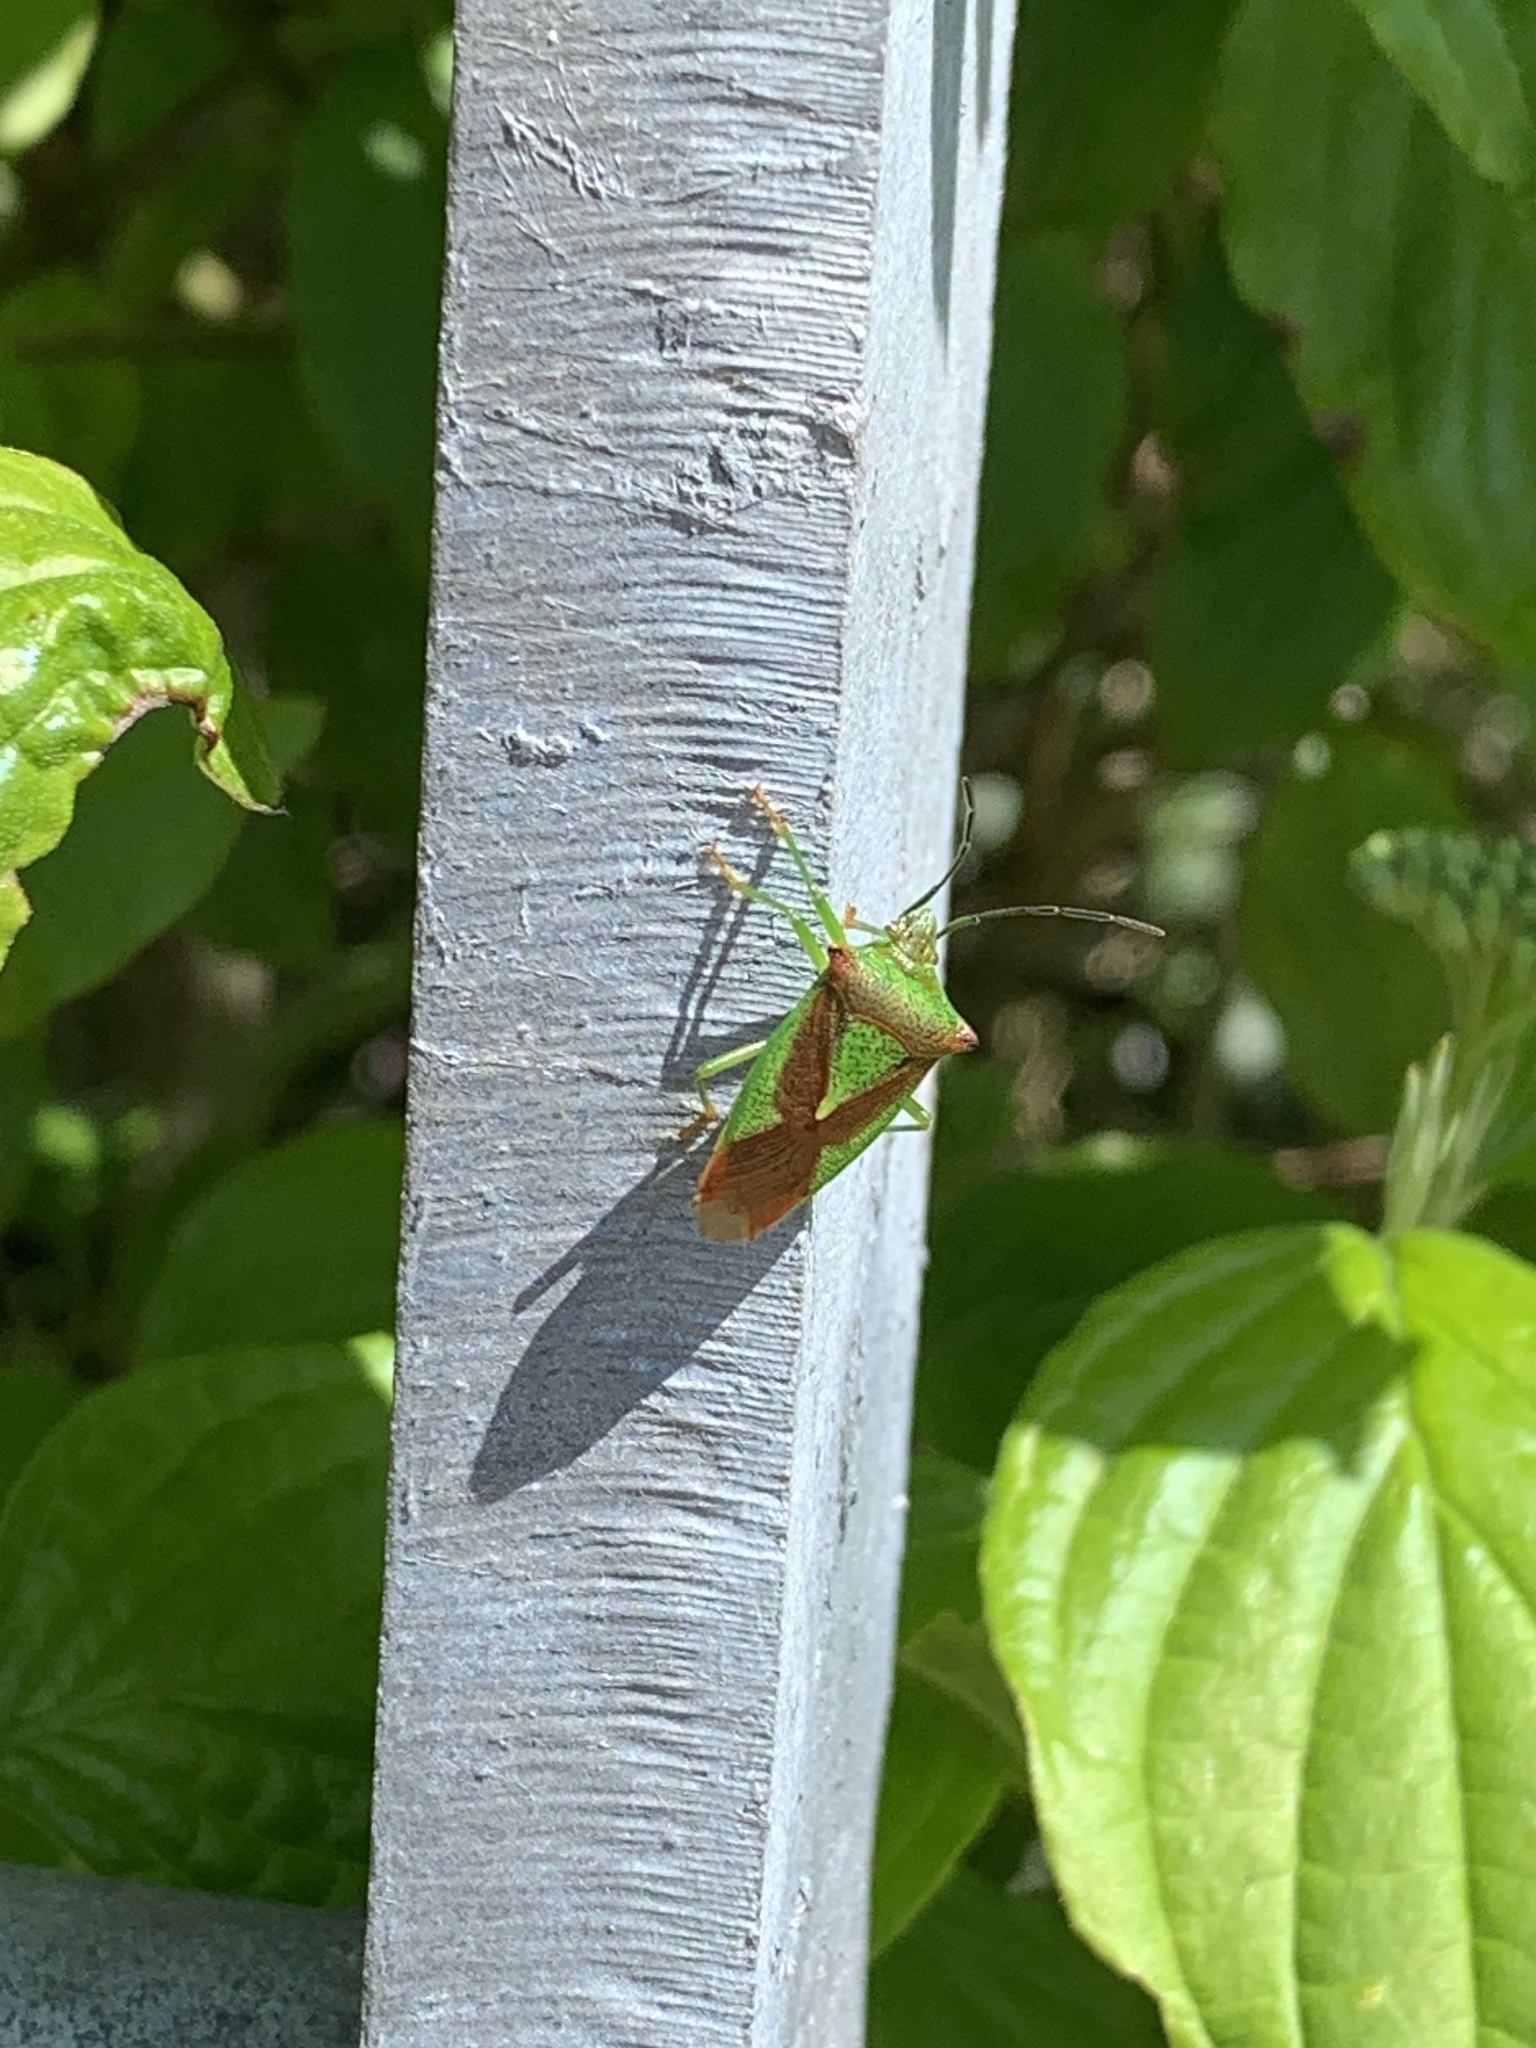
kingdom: Animalia
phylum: Arthropoda
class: Insecta
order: Hemiptera
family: Acanthosomatidae
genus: Acanthosoma
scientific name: Acanthosoma haemorrhoidale
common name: Hawthorn shieldbug
